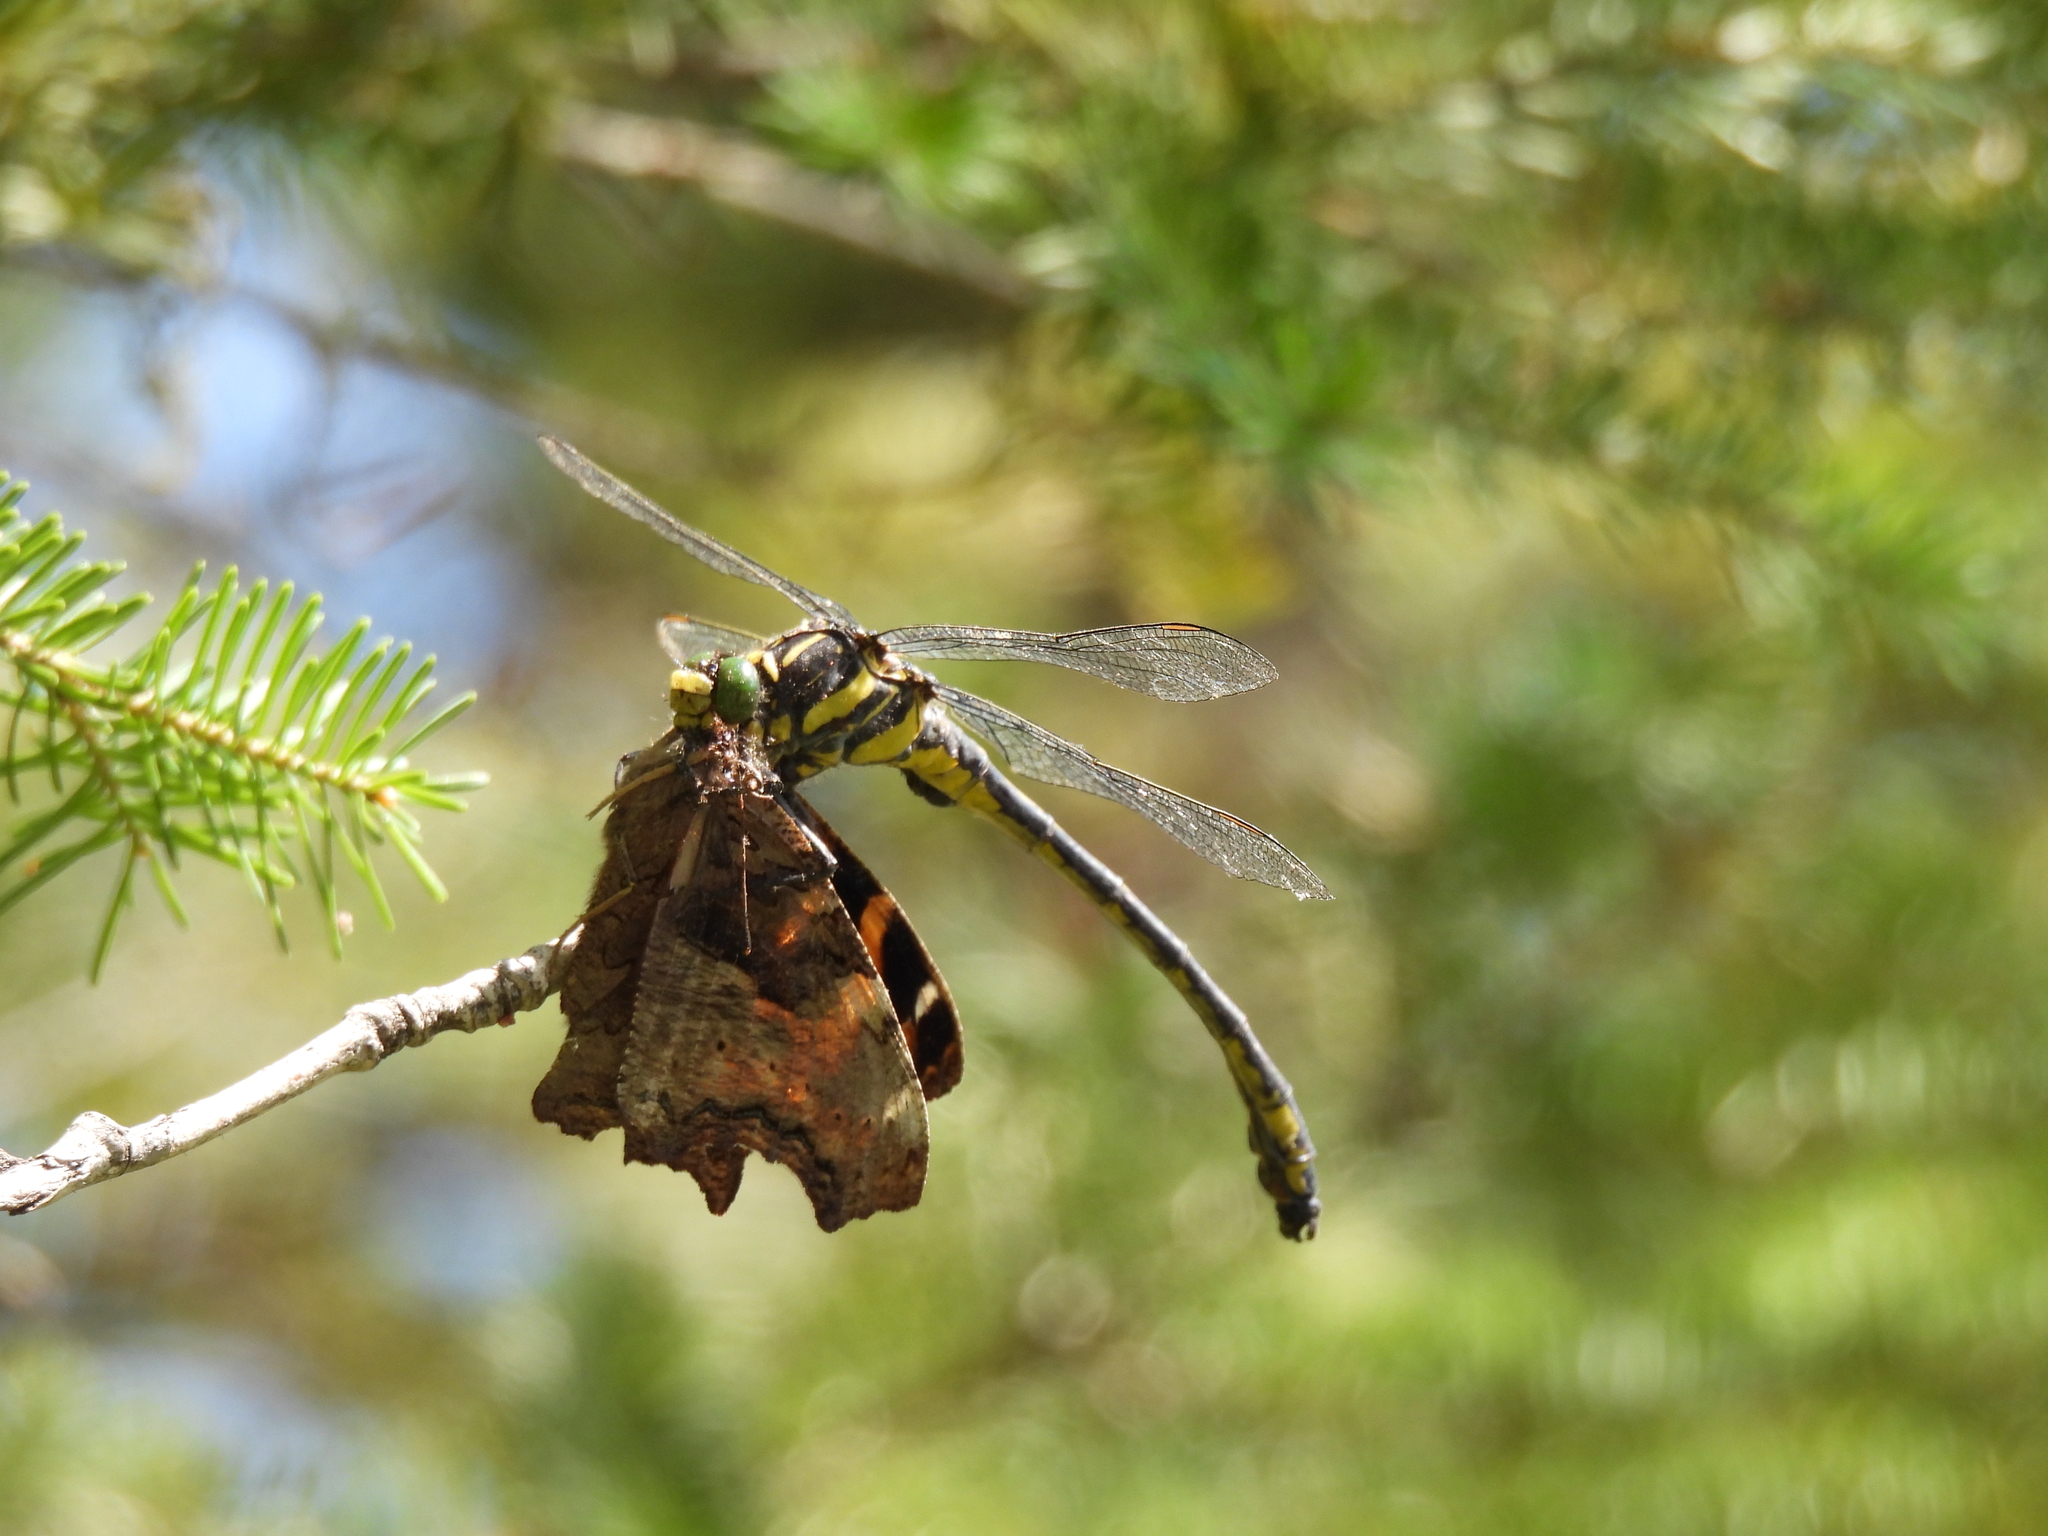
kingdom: Animalia
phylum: Arthropoda
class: Insecta
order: Odonata
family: Gomphidae
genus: Hagenius
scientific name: Hagenius brevistylus
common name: Dragonhunter
